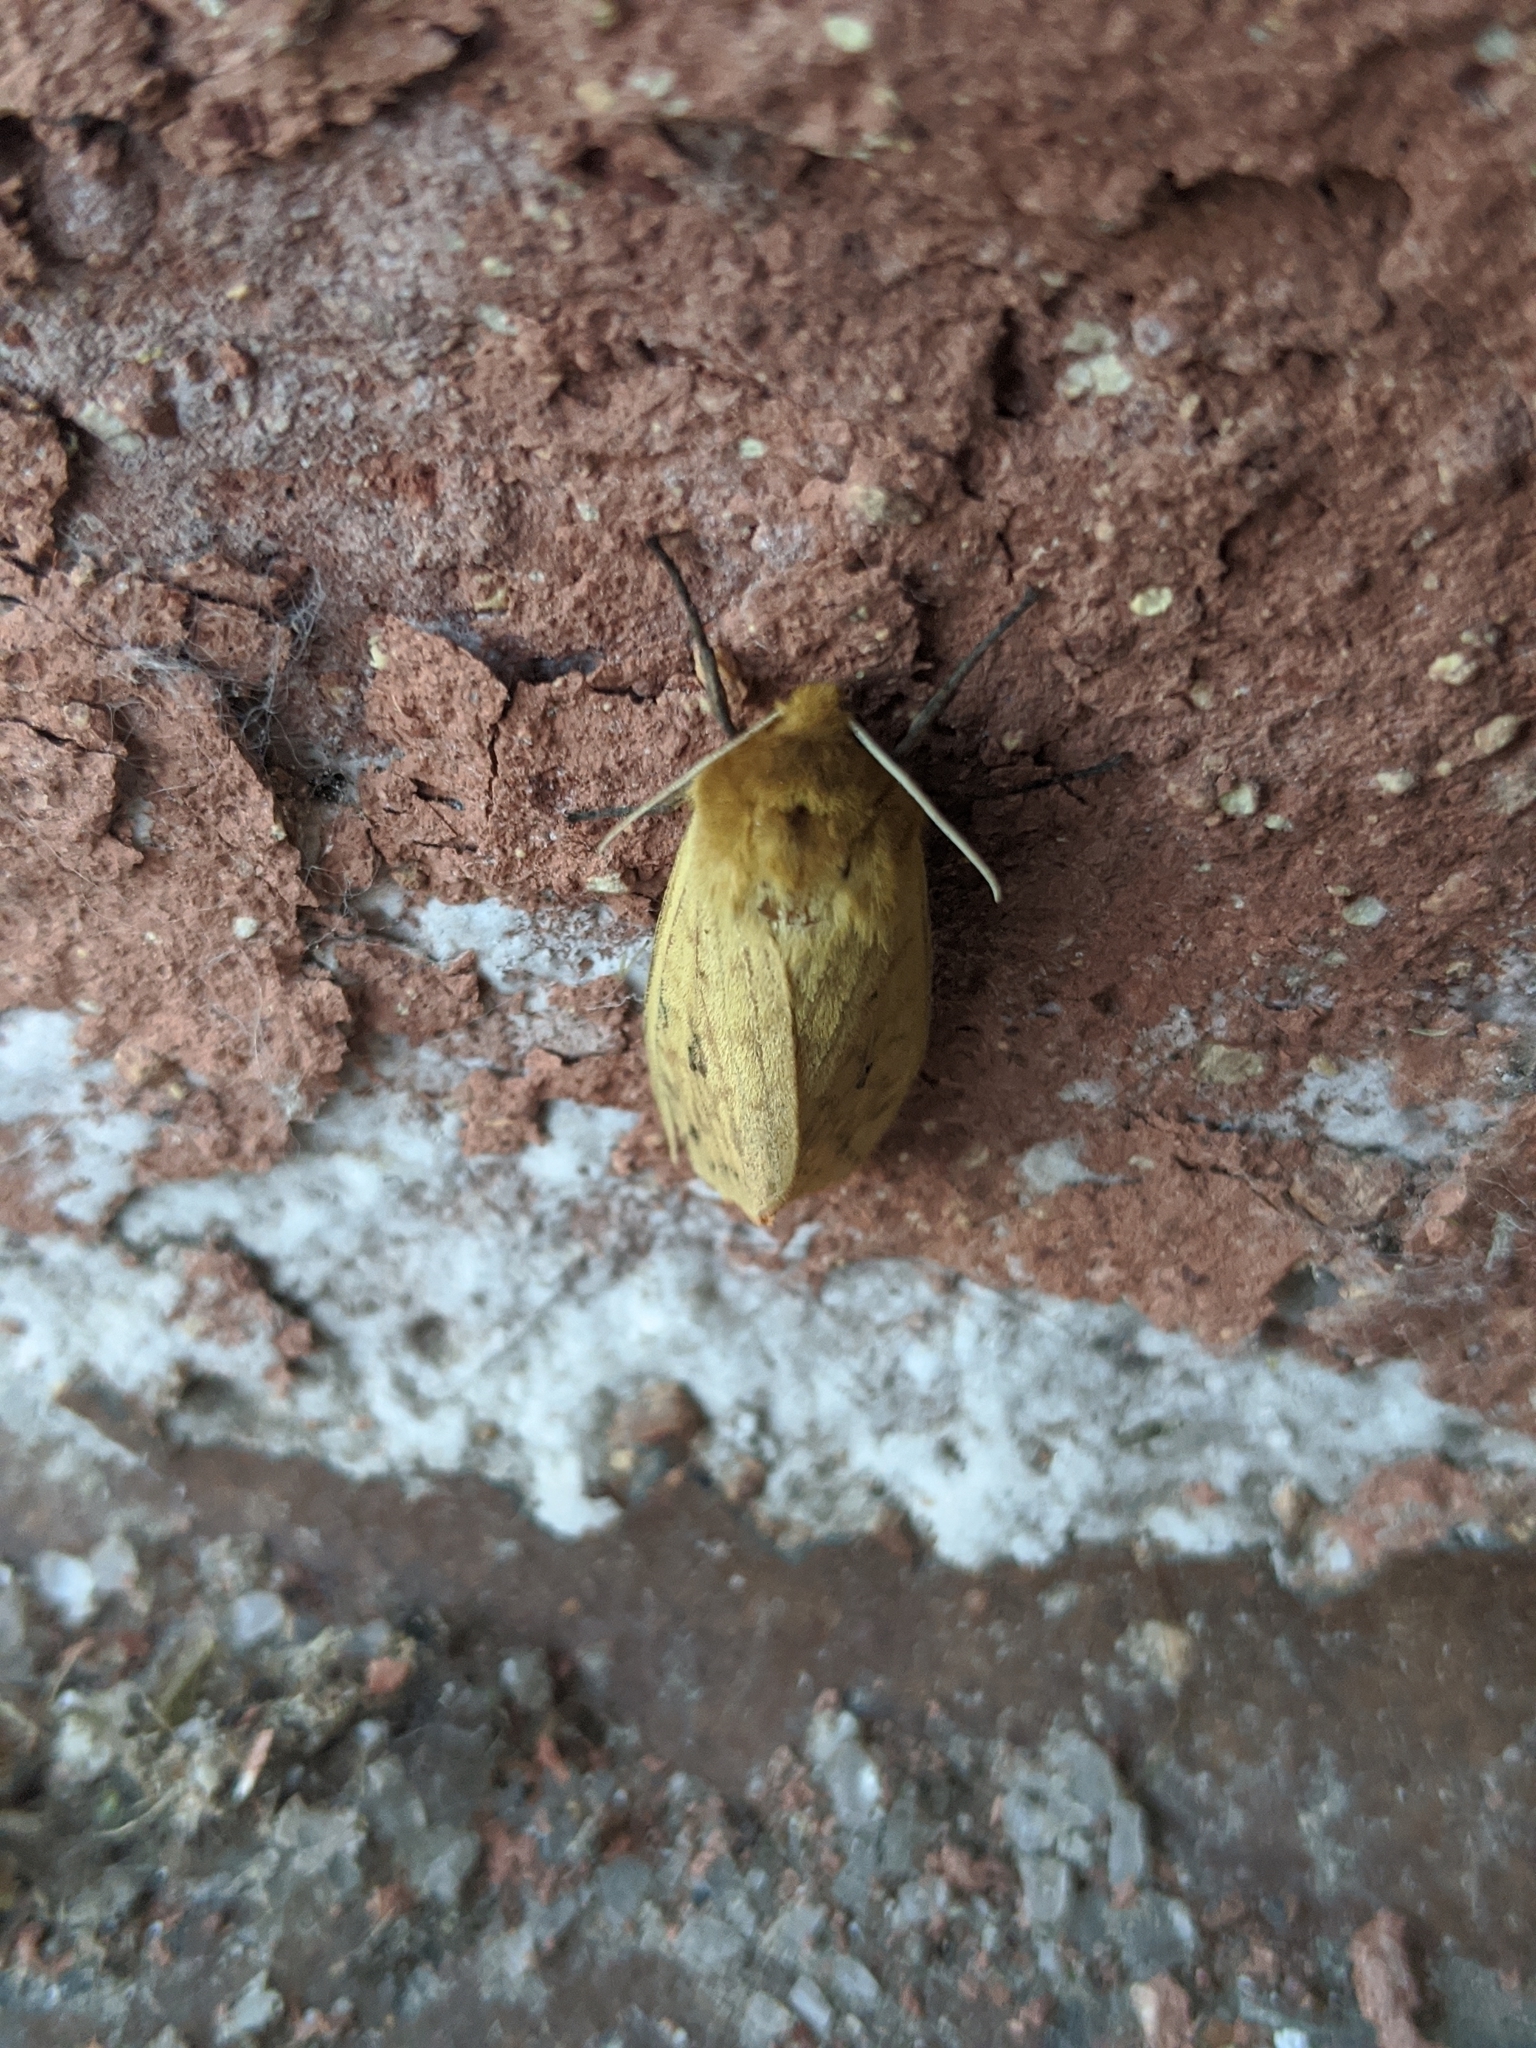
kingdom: Animalia
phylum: Arthropoda
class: Insecta
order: Lepidoptera
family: Erebidae
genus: Pyrrharctia
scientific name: Pyrrharctia isabella
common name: Isabella tiger moth
